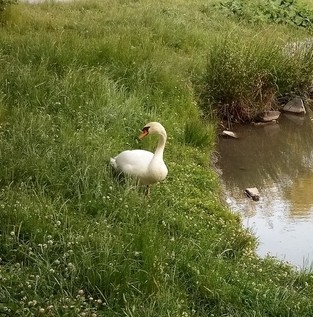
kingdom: Animalia
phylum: Chordata
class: Aves
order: Anseriformes
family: Anatidae
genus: Cygnus
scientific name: Cygnus olor
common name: Mute swan
